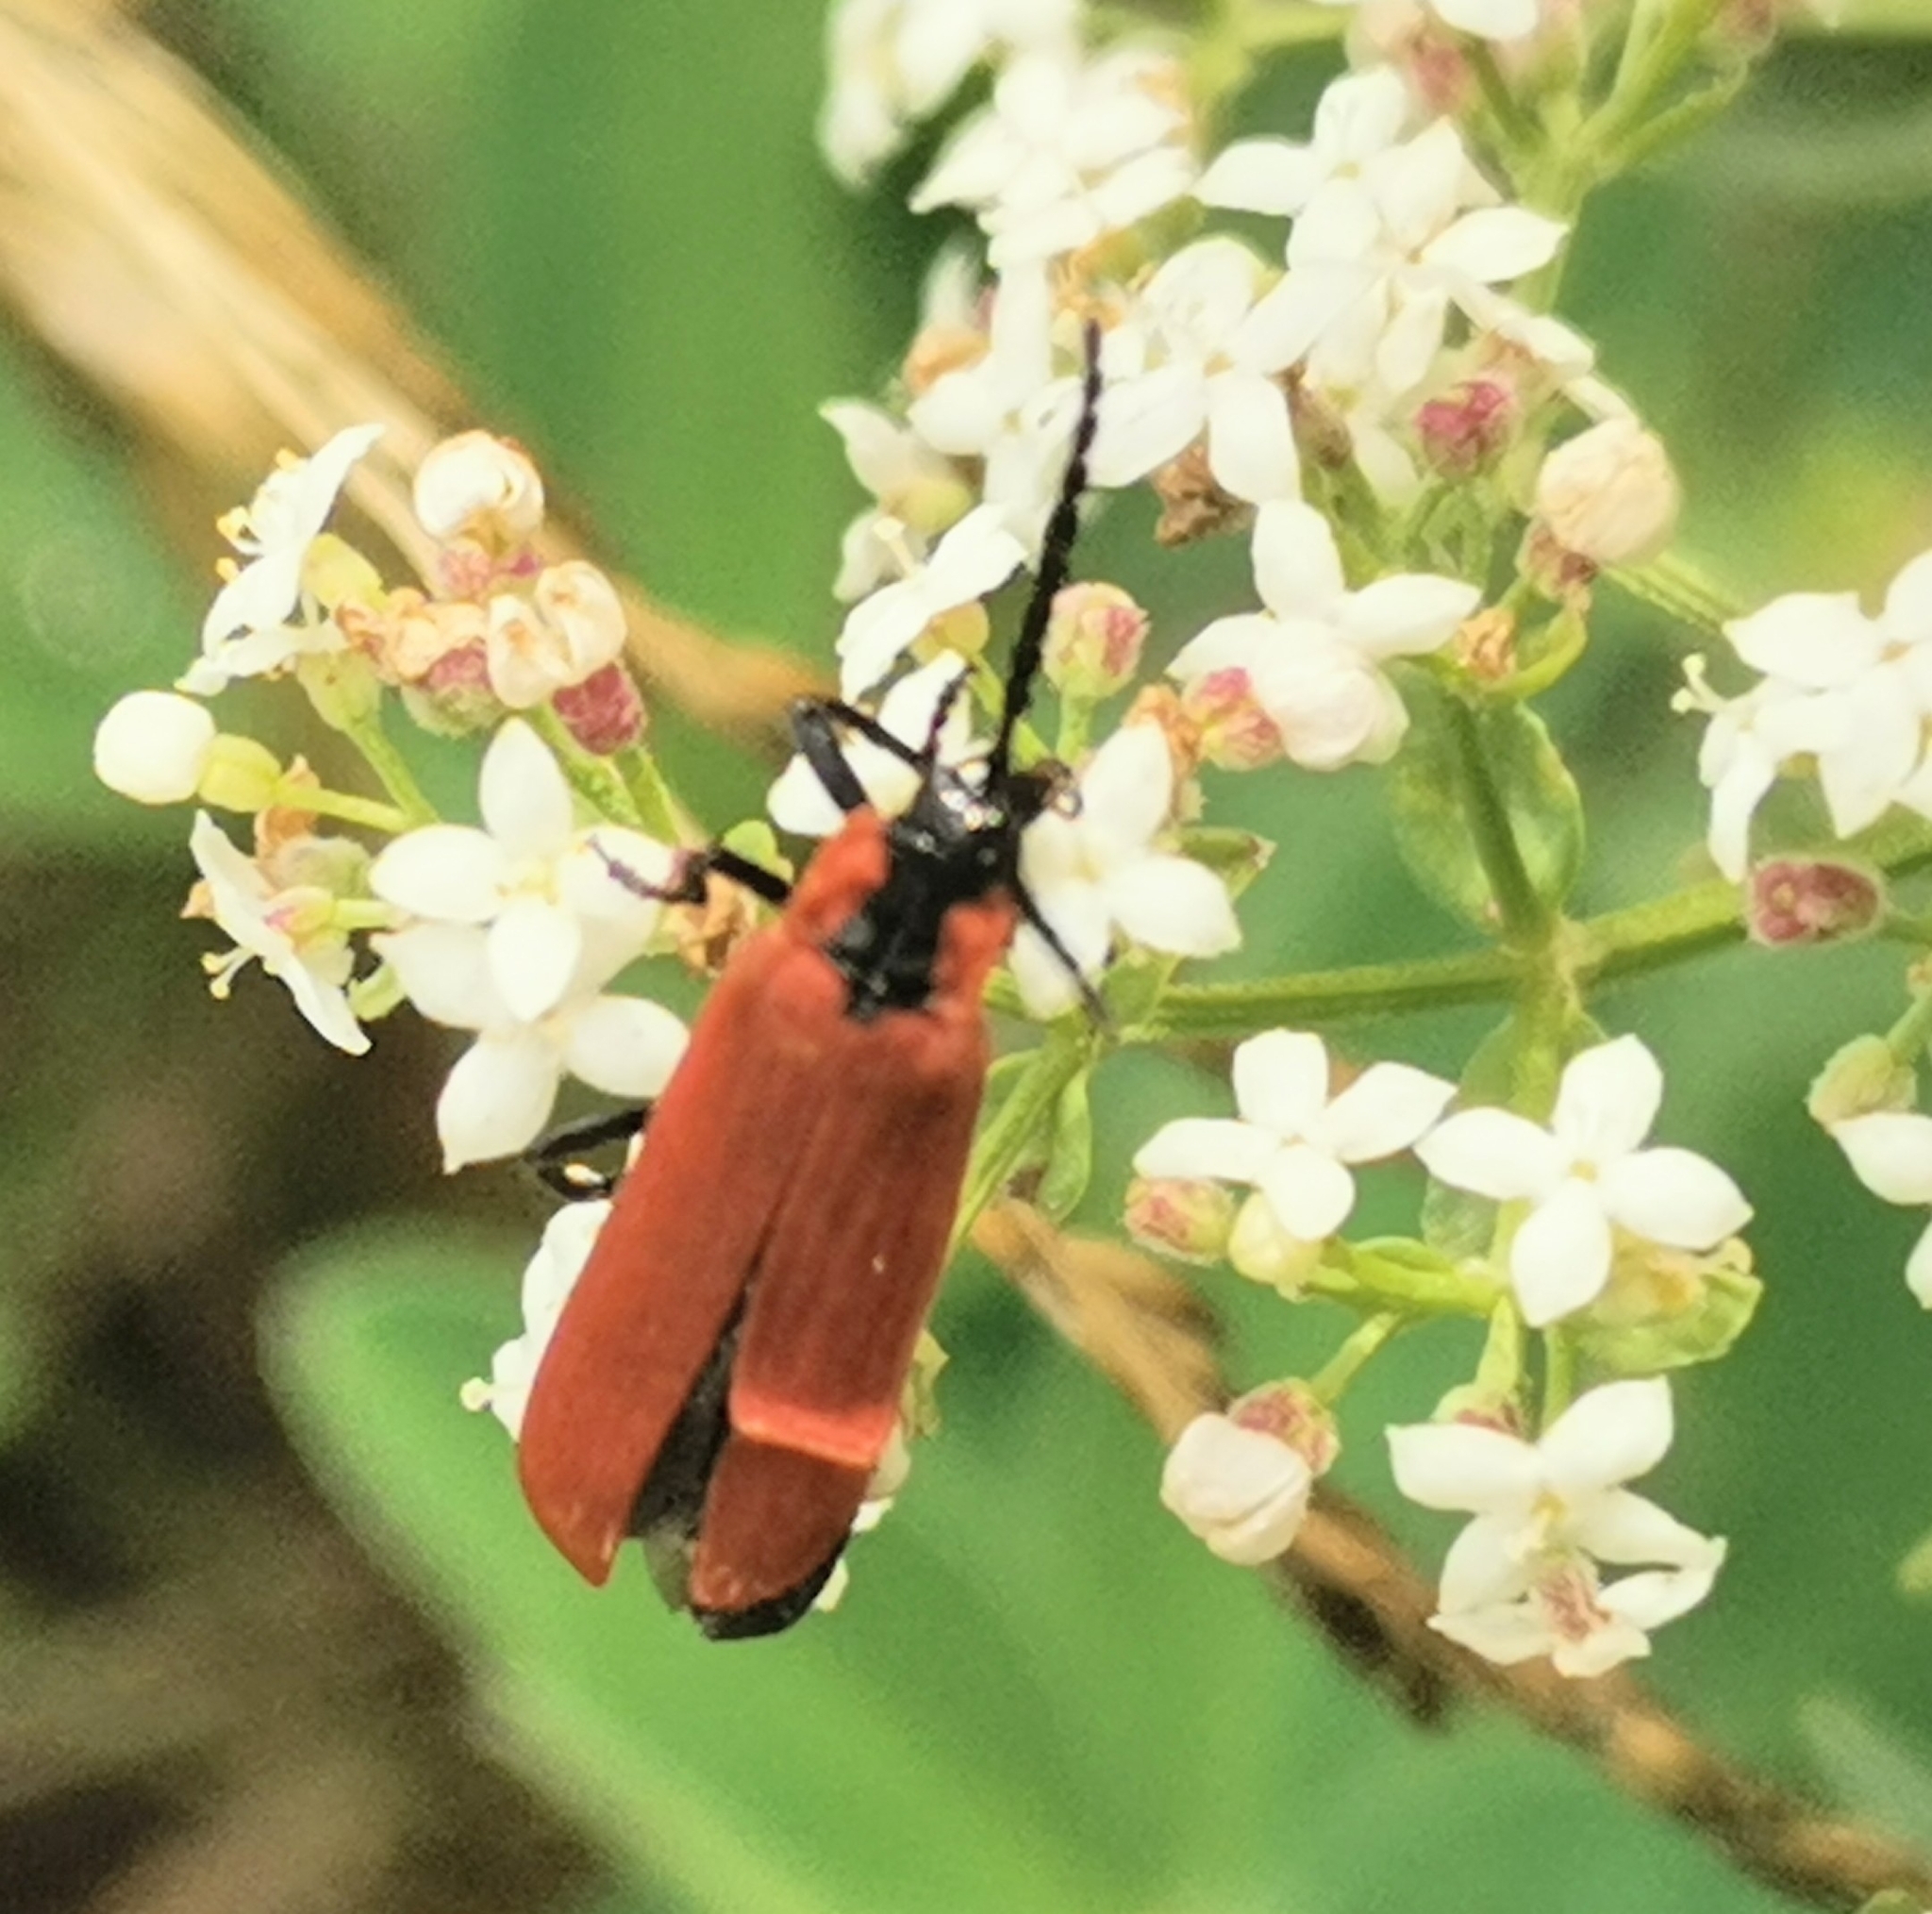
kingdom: Animalia
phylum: Arthropoda
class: Insecta
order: Coleoptera
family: Lycidae
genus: Lygistopterus
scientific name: Lygistopterus sanguineus
